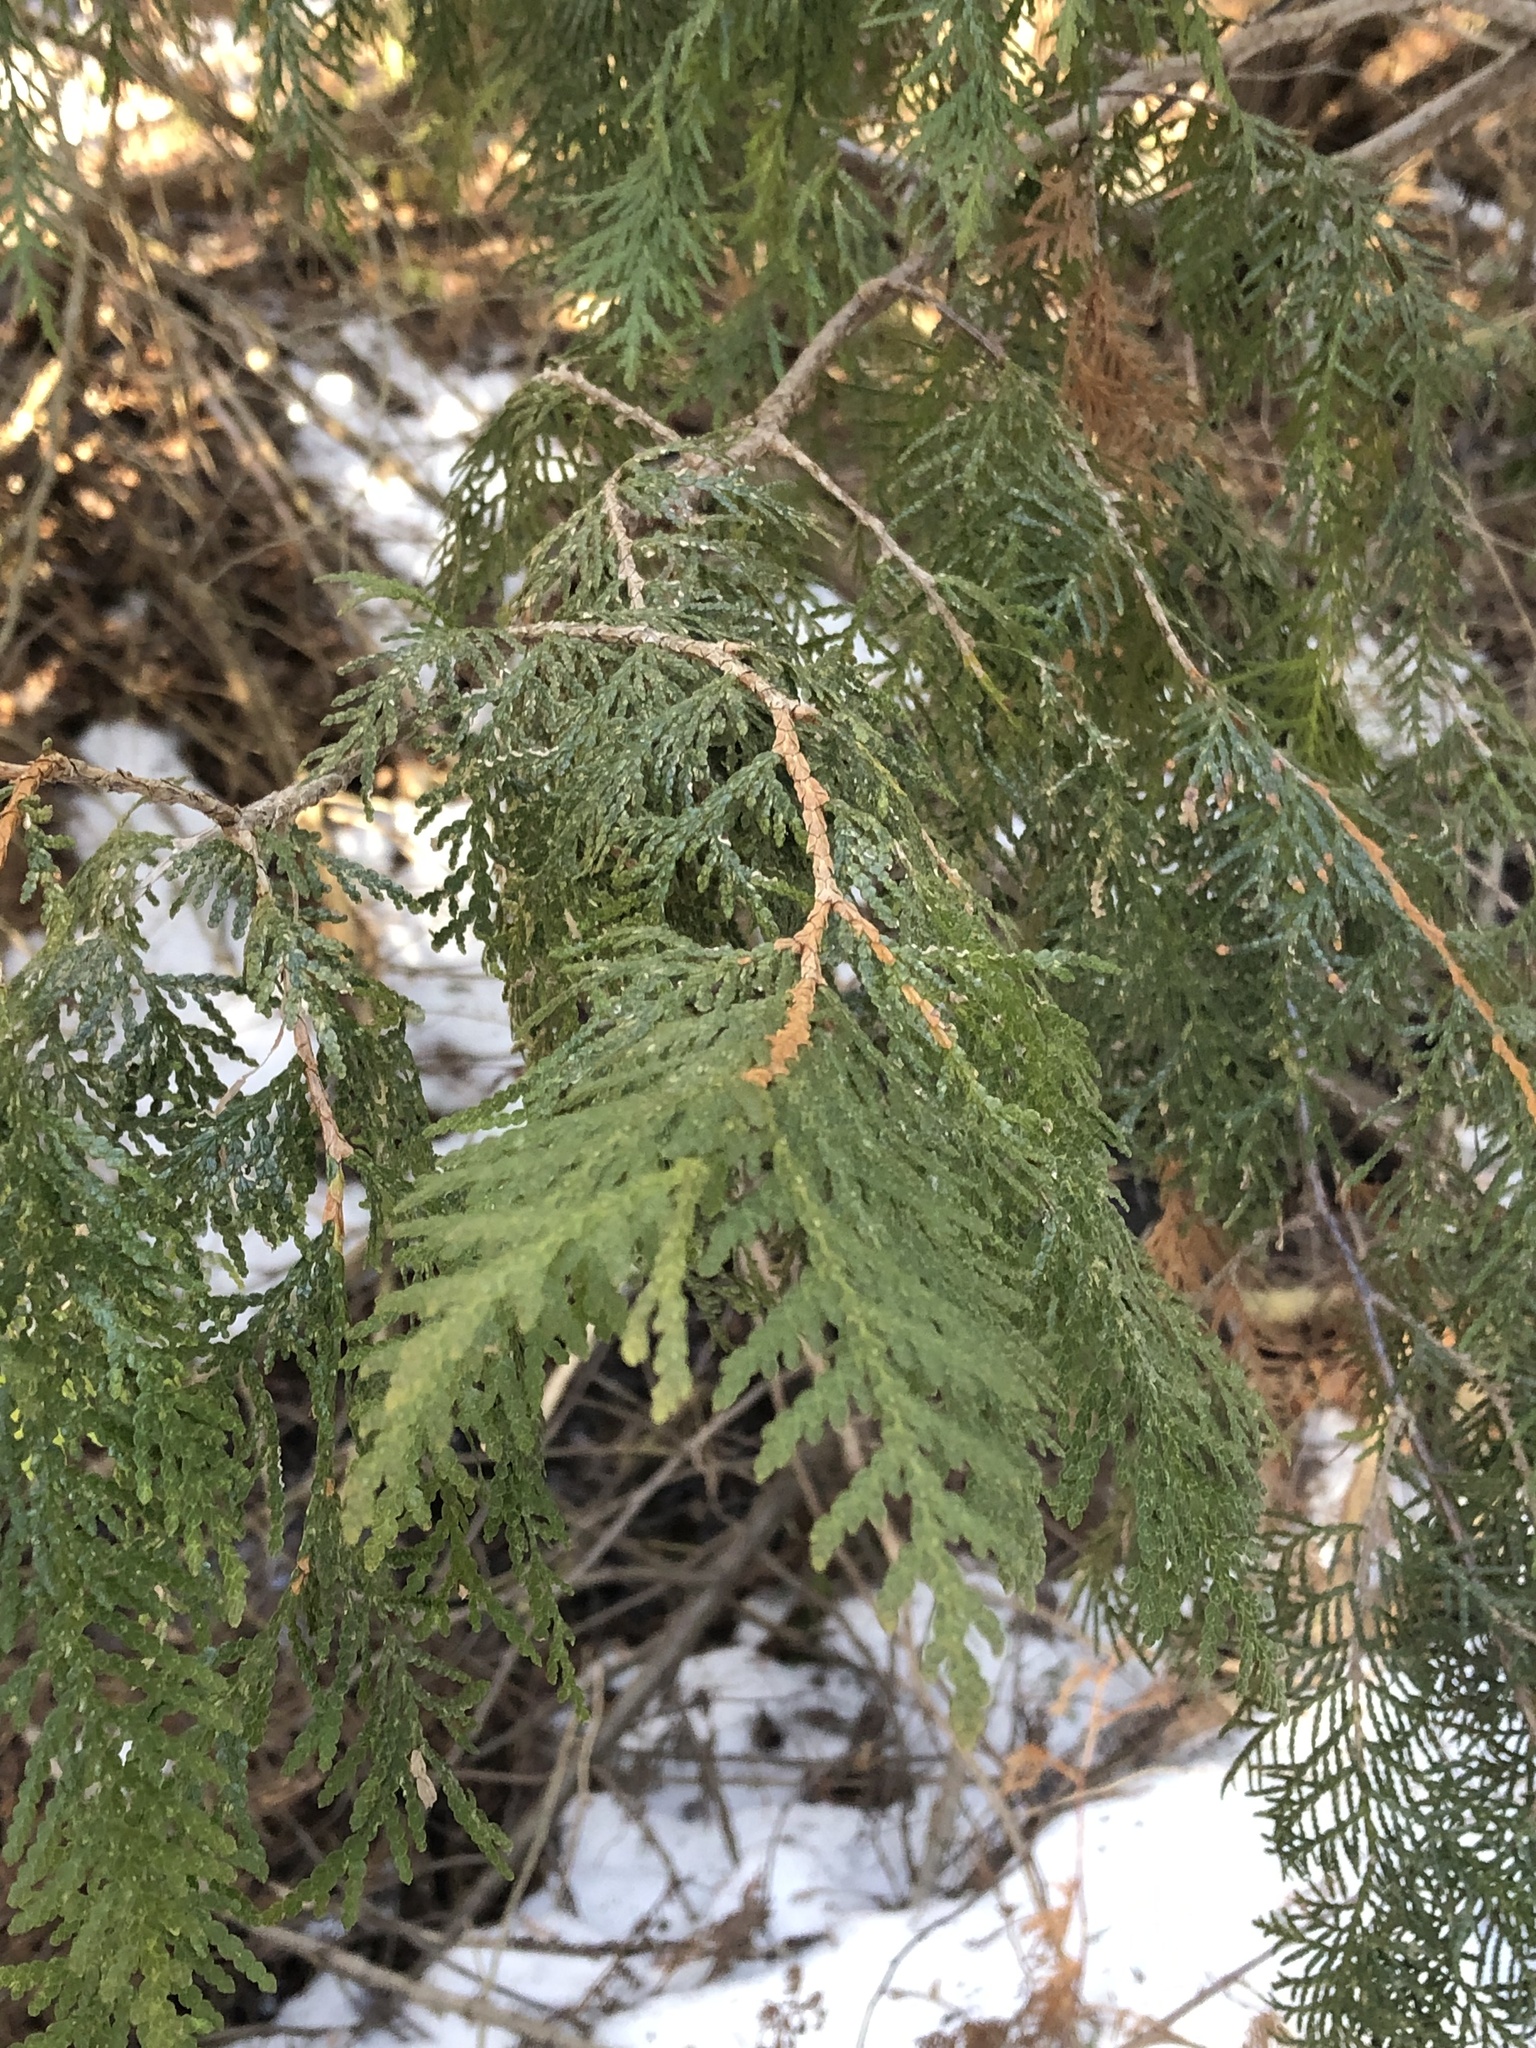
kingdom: Plantae
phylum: Tracheophyta
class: Pinopsida
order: Pinales
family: Cupressaceae
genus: Thuja
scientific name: Thuja occidentalis
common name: Northern white-cedar
